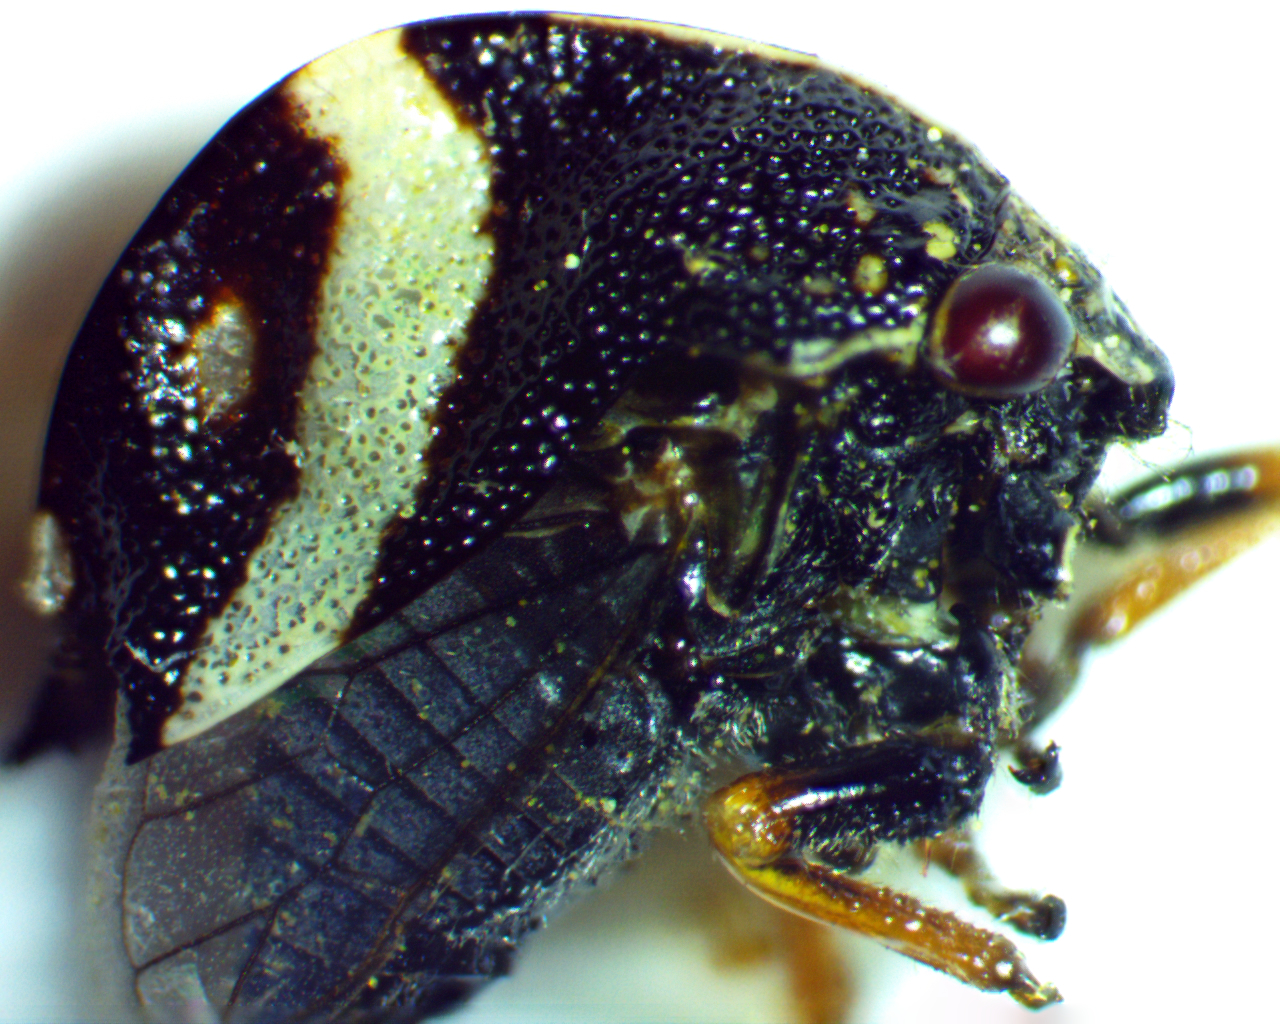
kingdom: Animalia
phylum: Arthropoda
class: Insecta
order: Hemiptera
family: Membracidae
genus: Smilia
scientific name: Smilia fasciata
